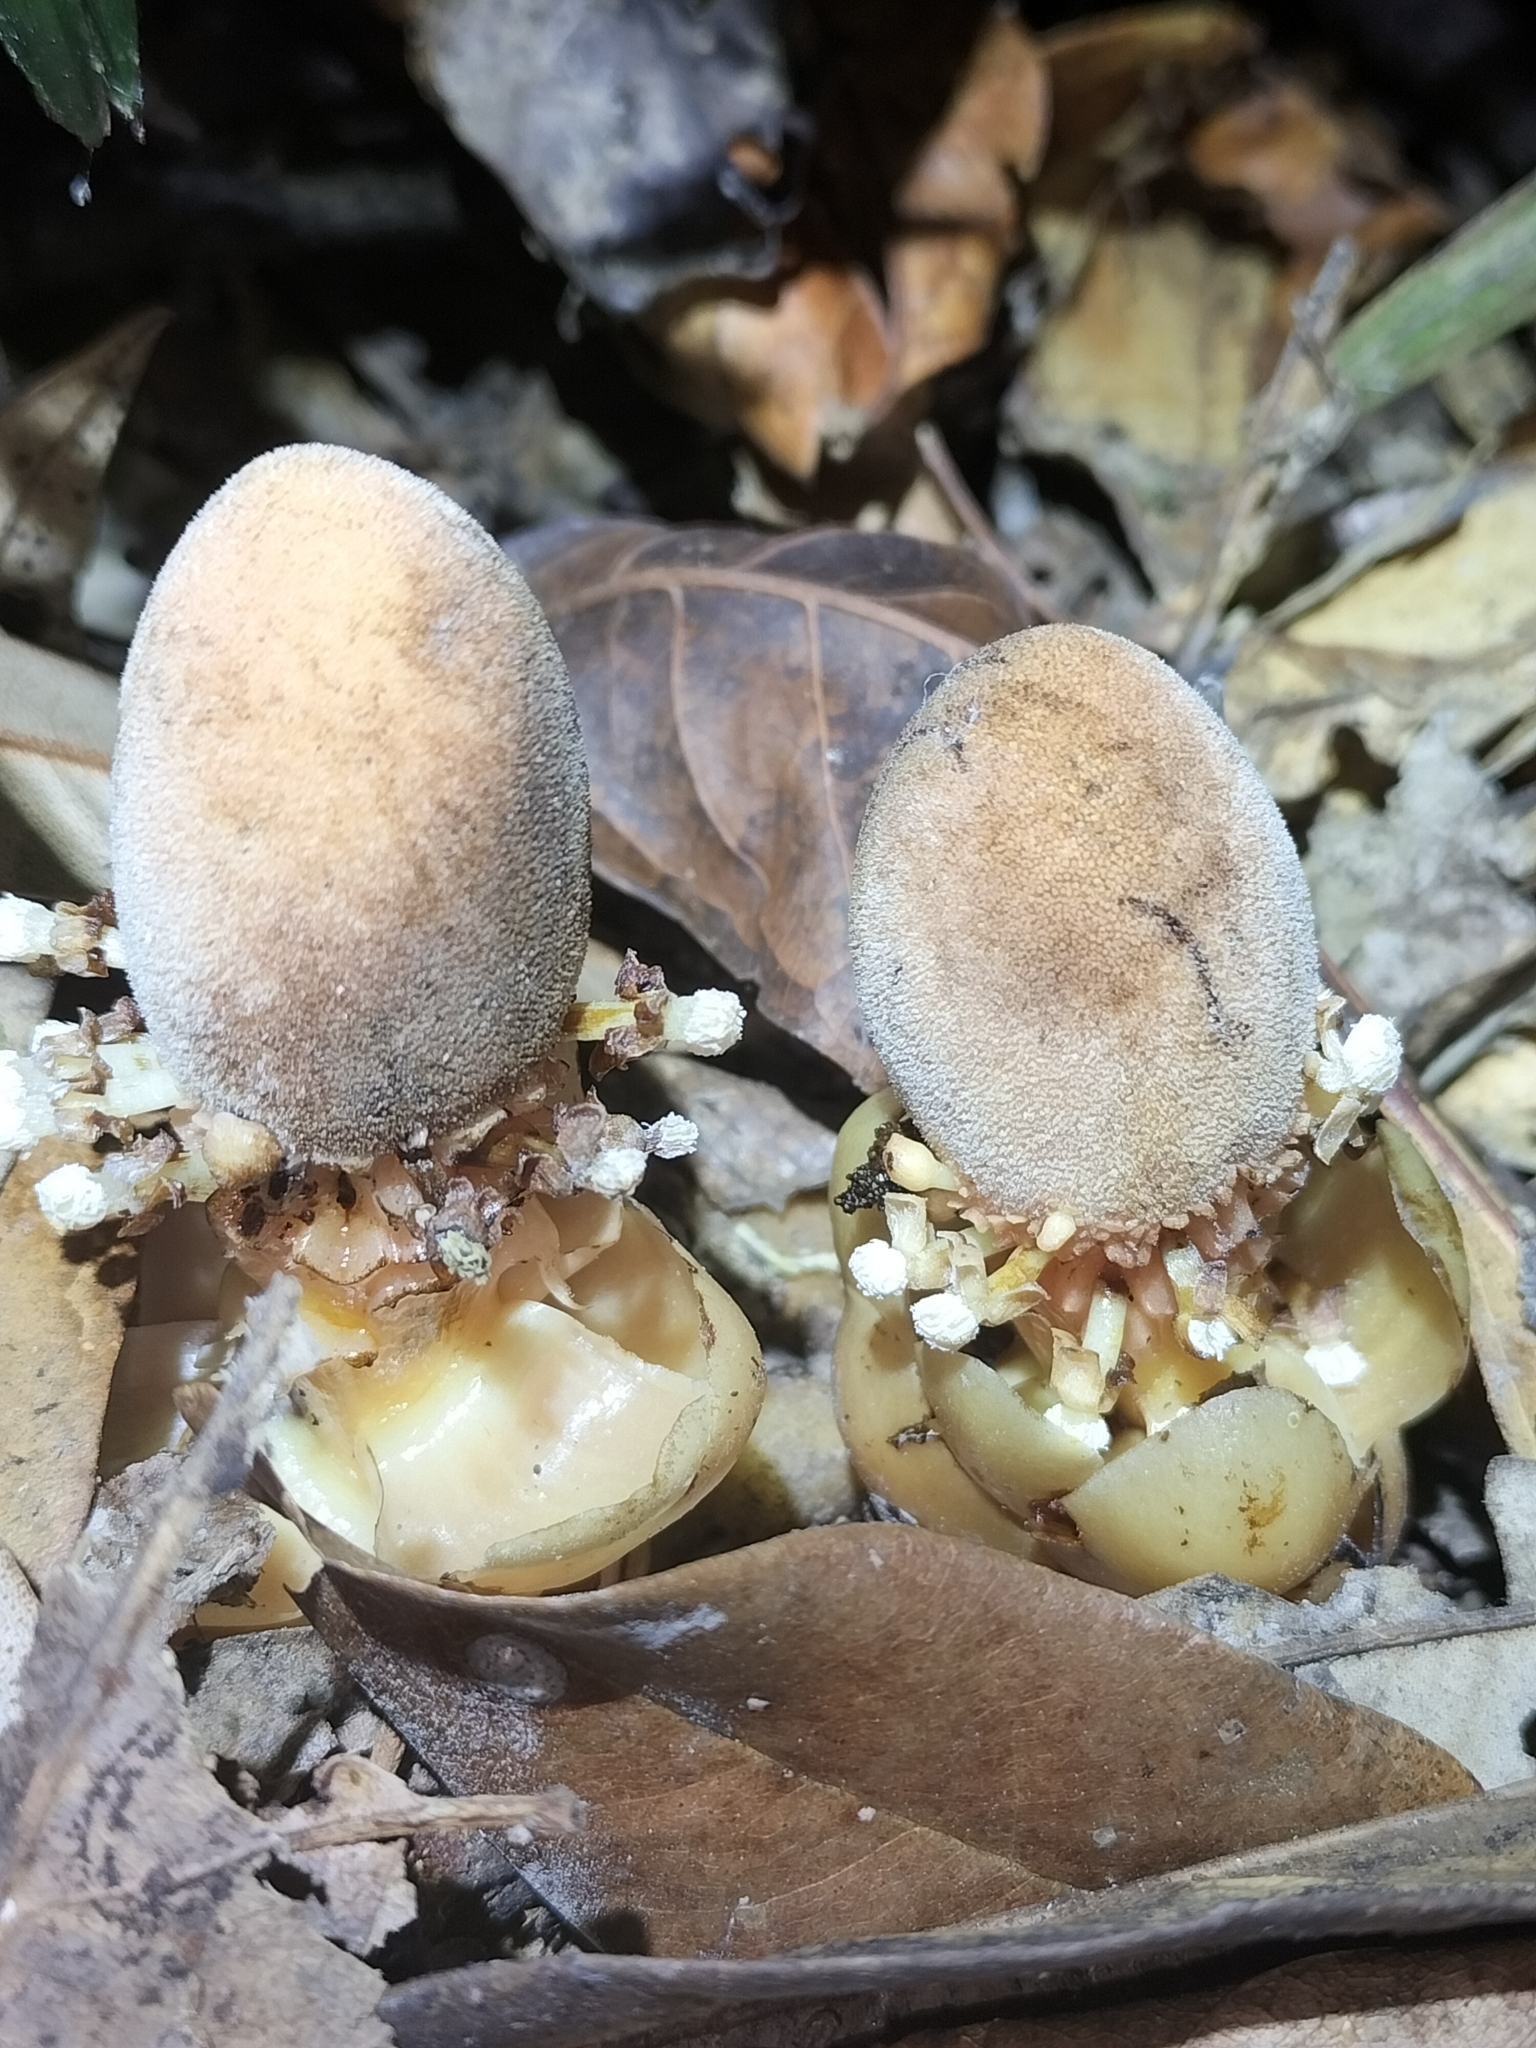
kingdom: Plantae
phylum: Tracheophyta
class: Magnoliopsida
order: Santalales
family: Balanophoraceae
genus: Balanophora
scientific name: Balanophora fungosa
